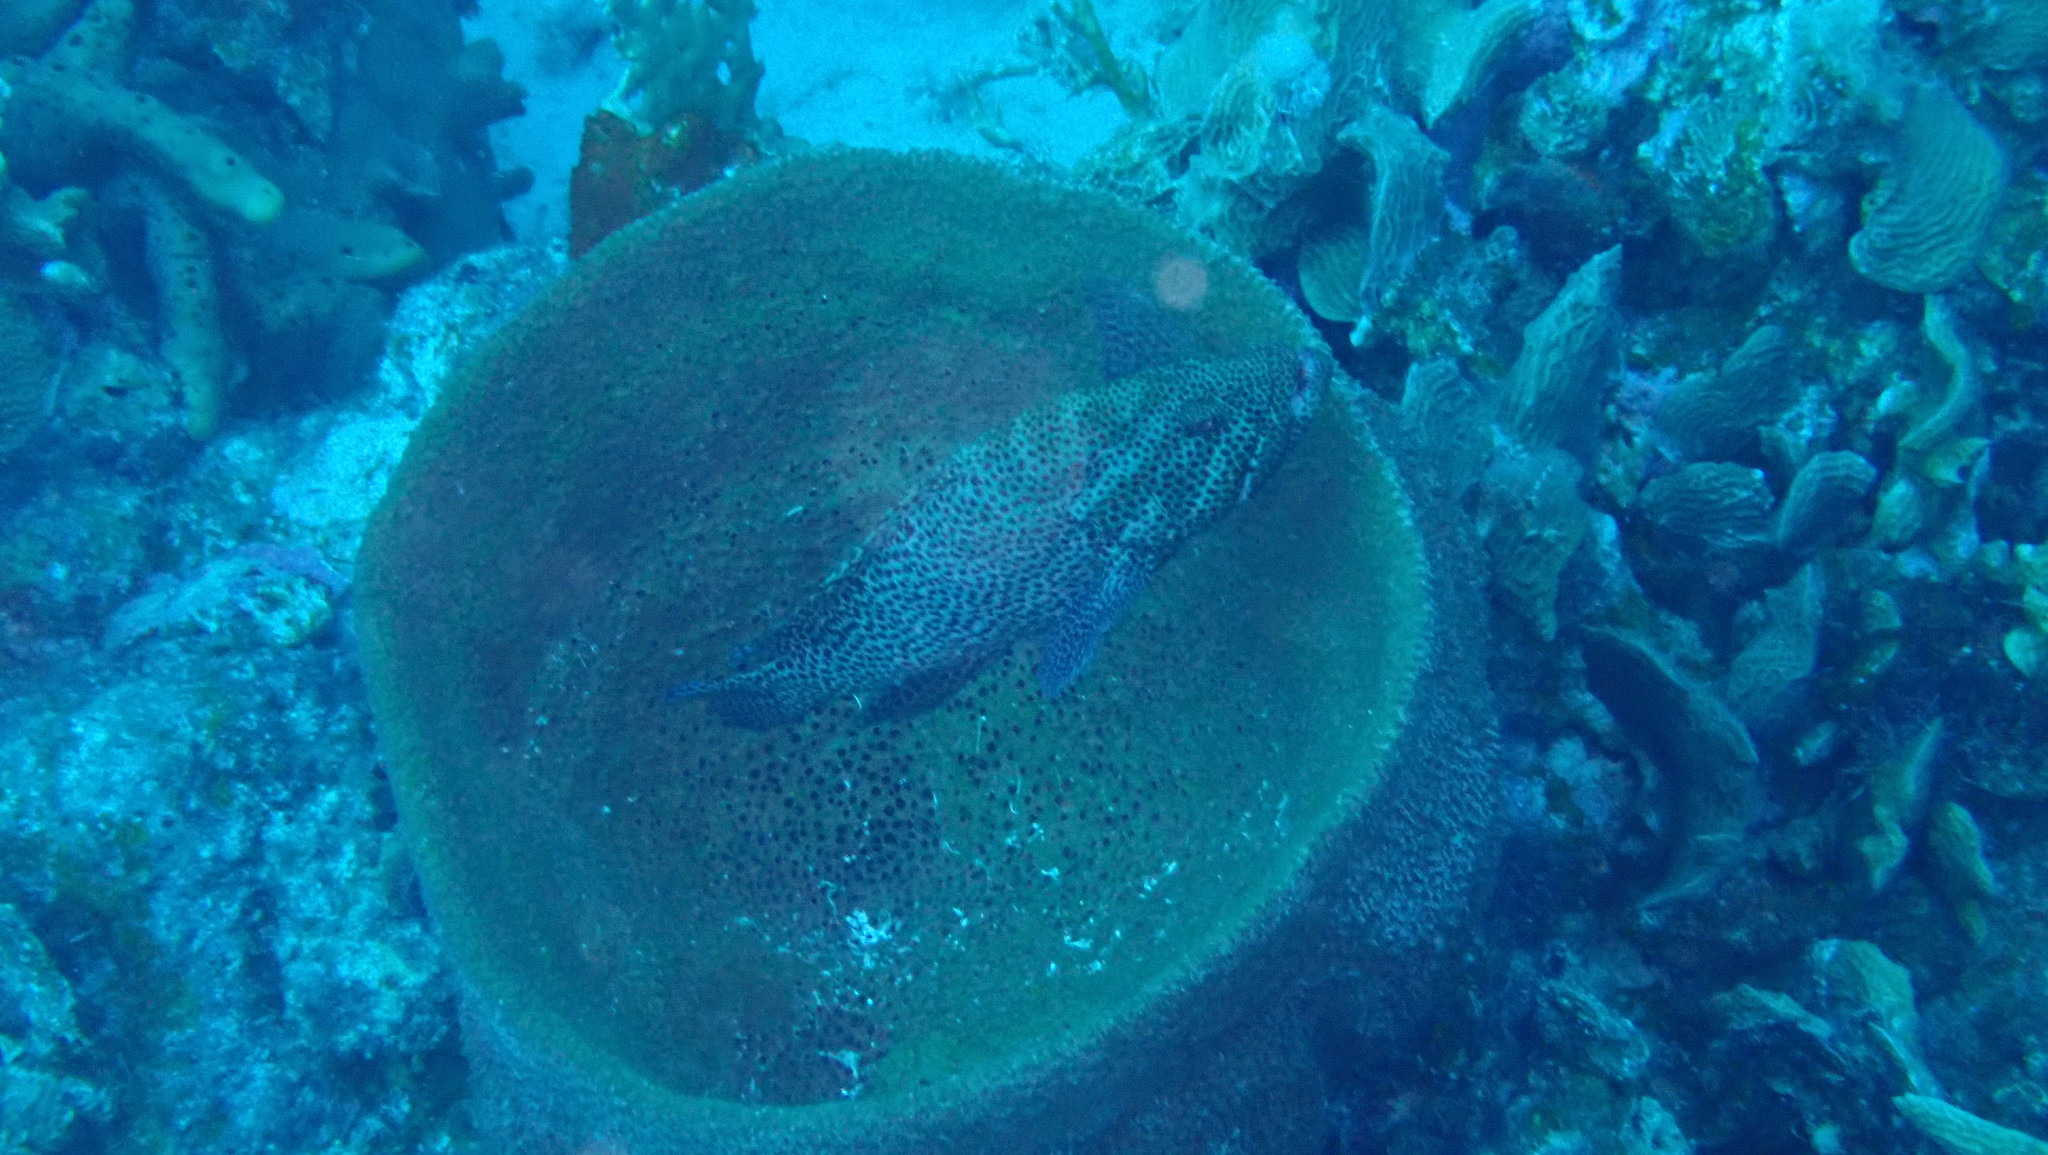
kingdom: Animalia
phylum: Chordata
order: Perciformes
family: Serranidae
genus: Cephalopholis
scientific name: Cephalopholis cruentata
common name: Graysby
